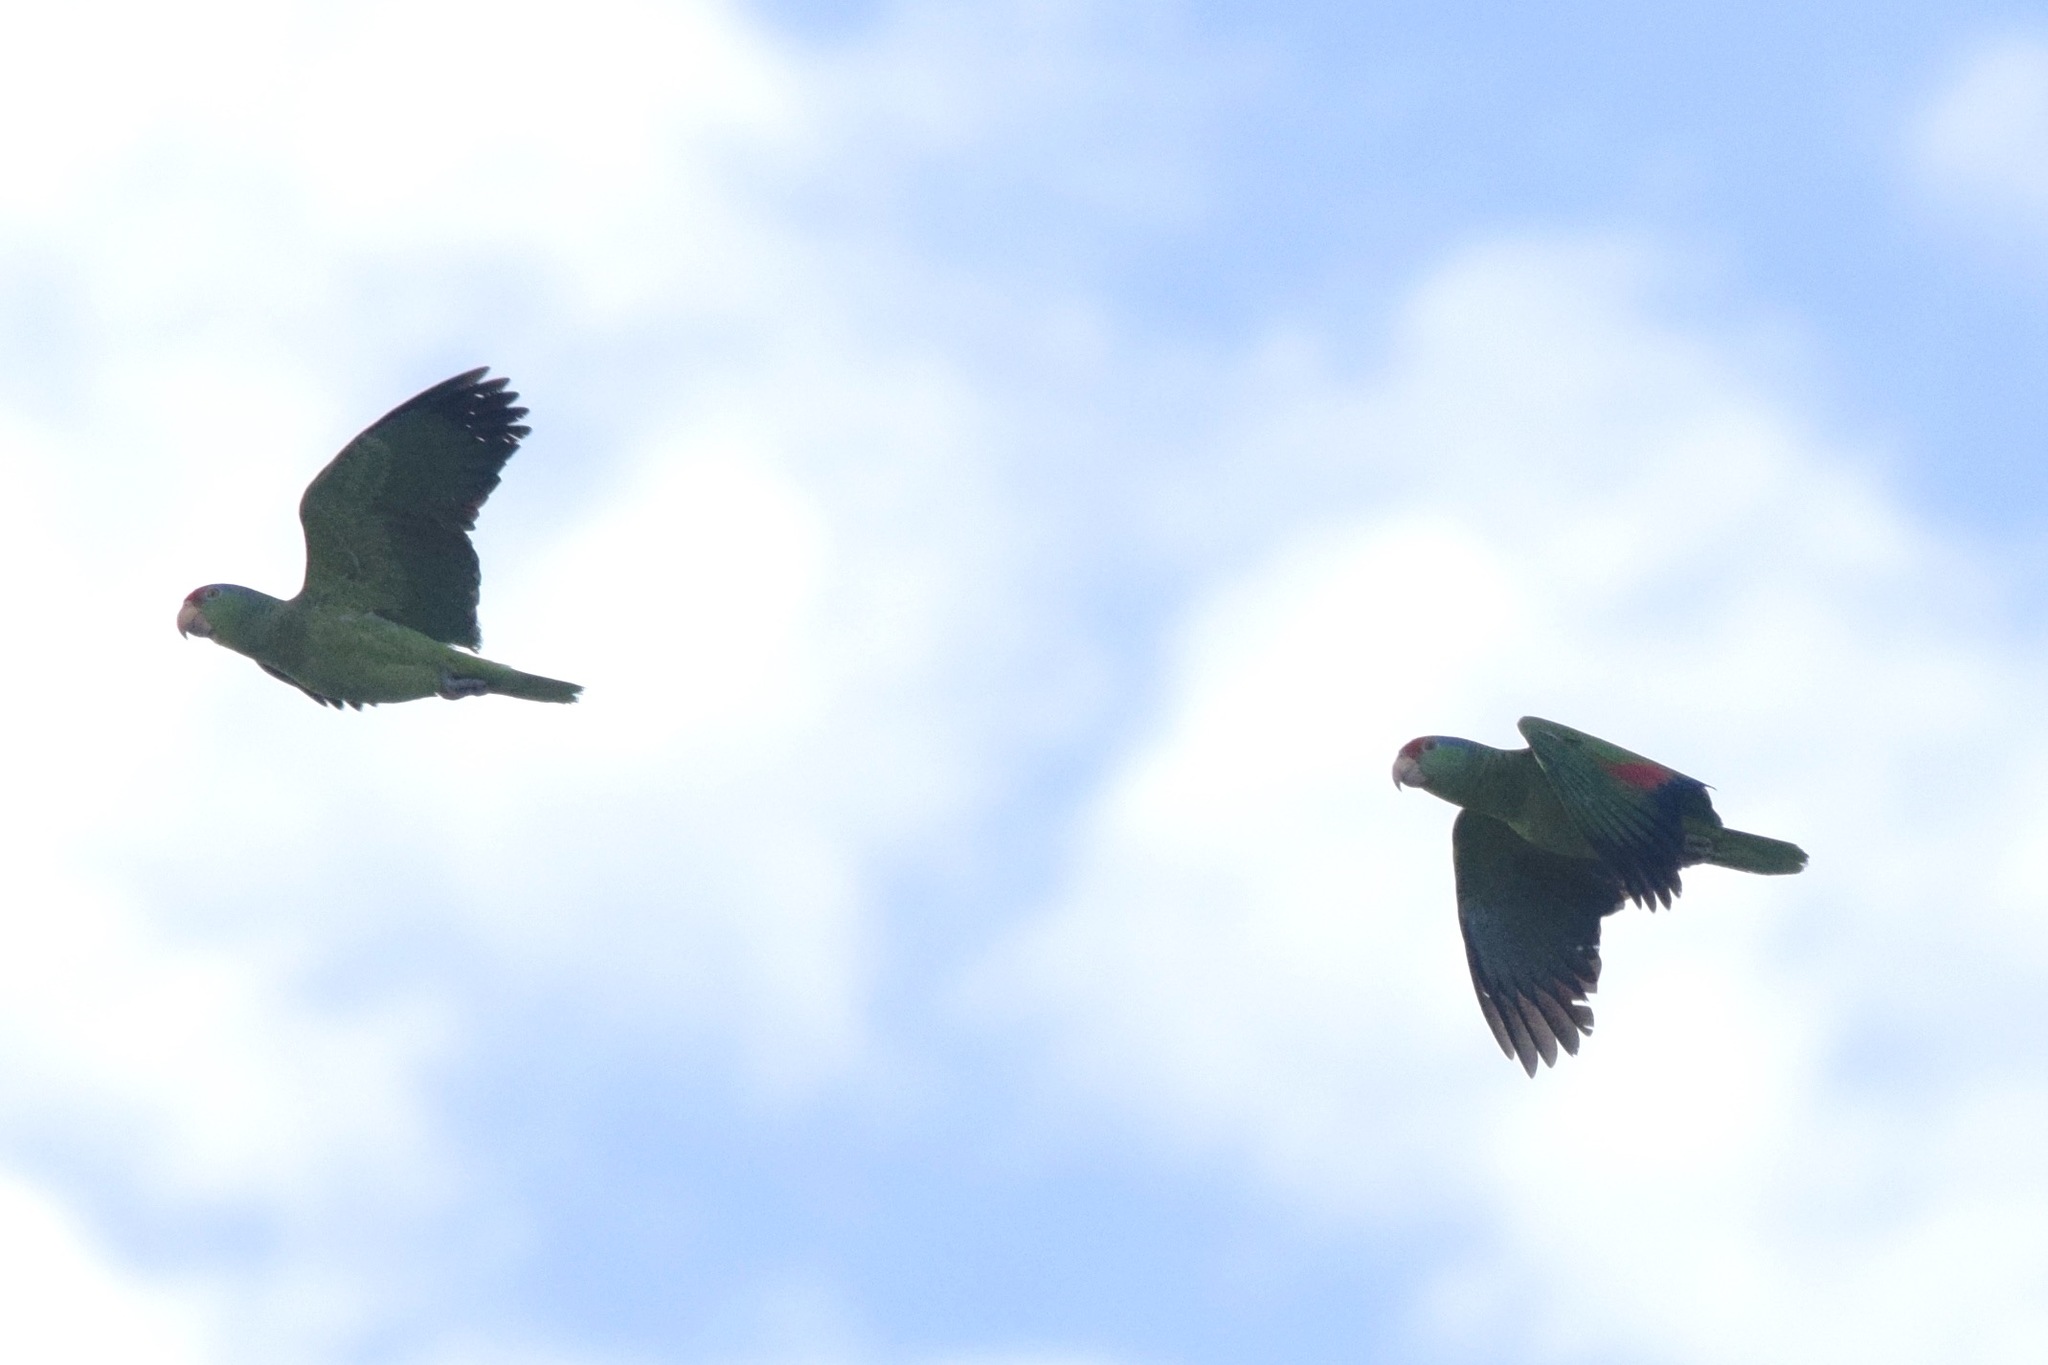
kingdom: Animalia
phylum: Chordata
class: Aves
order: Psittaciformes
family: Psittacidae
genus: Amazona
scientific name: Amazona viridigenalis
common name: Red-crowned amazon
